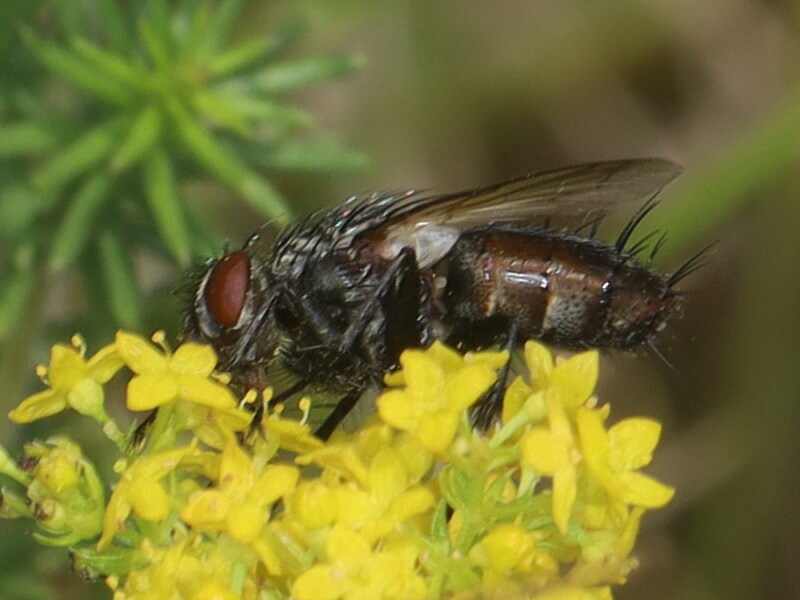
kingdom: Animalia
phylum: Arthropoda
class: Insecta
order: Diptera
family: Tachinidae
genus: Zeuxia
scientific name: Zeuxia cinerea
